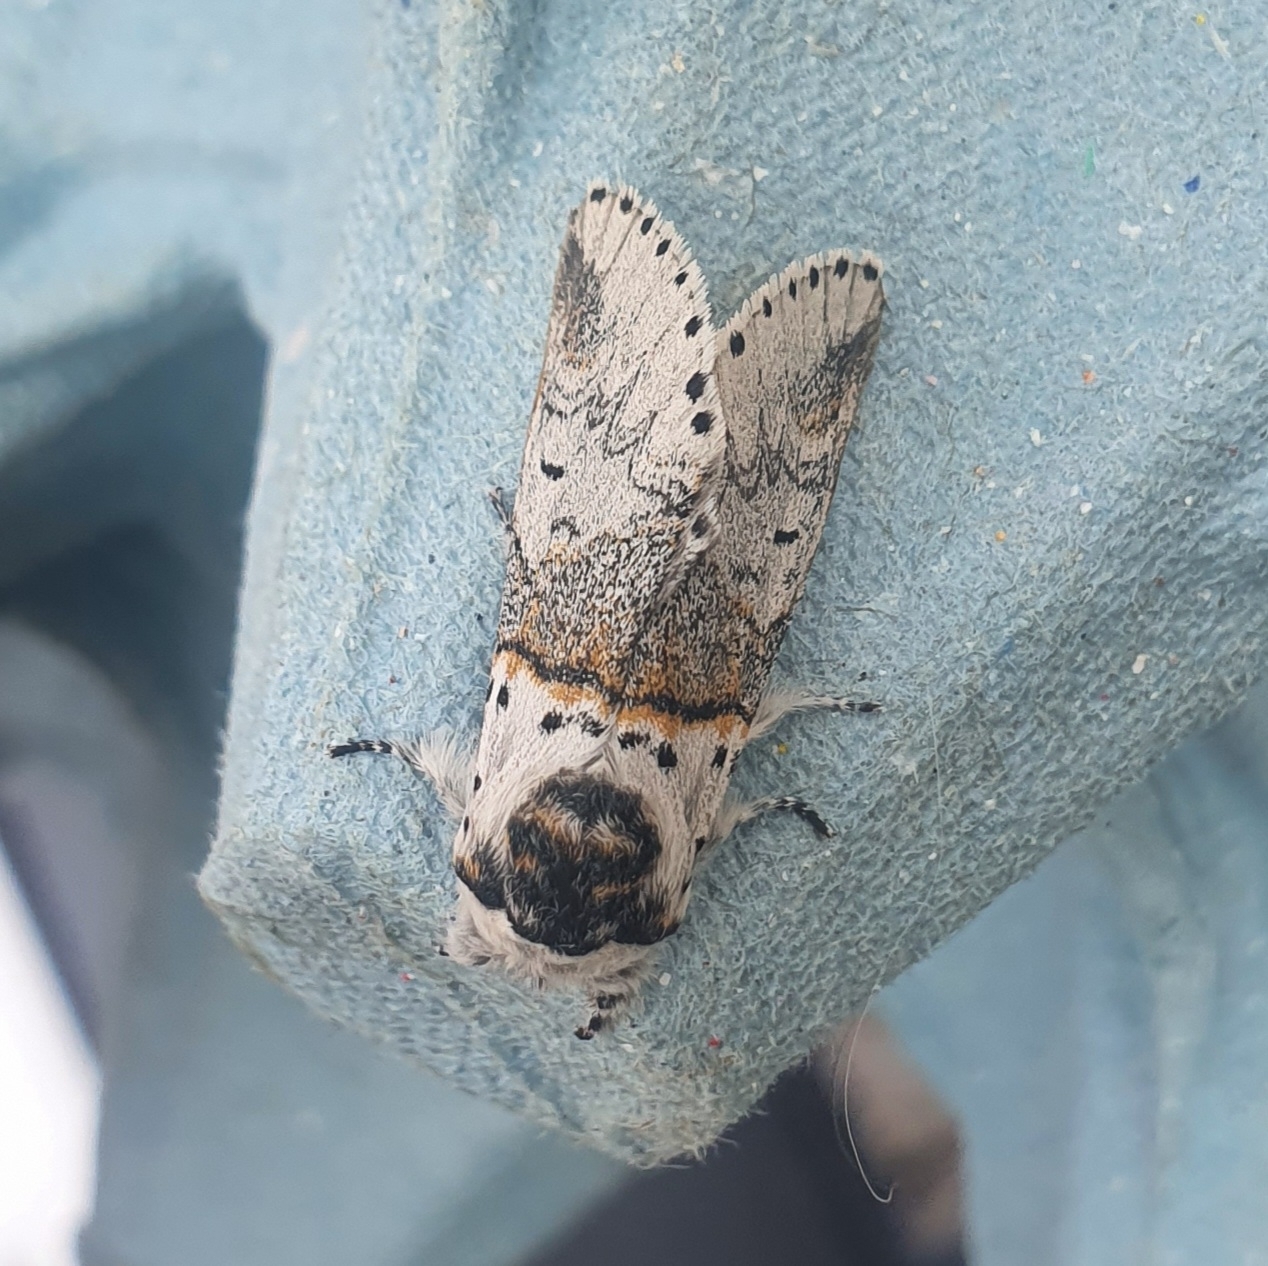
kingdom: Animalia
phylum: Arthropoda
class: Insecta
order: Lepidoptera
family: Notodontidae
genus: Furcula
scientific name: Furcula furcula
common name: Sallow kitten
